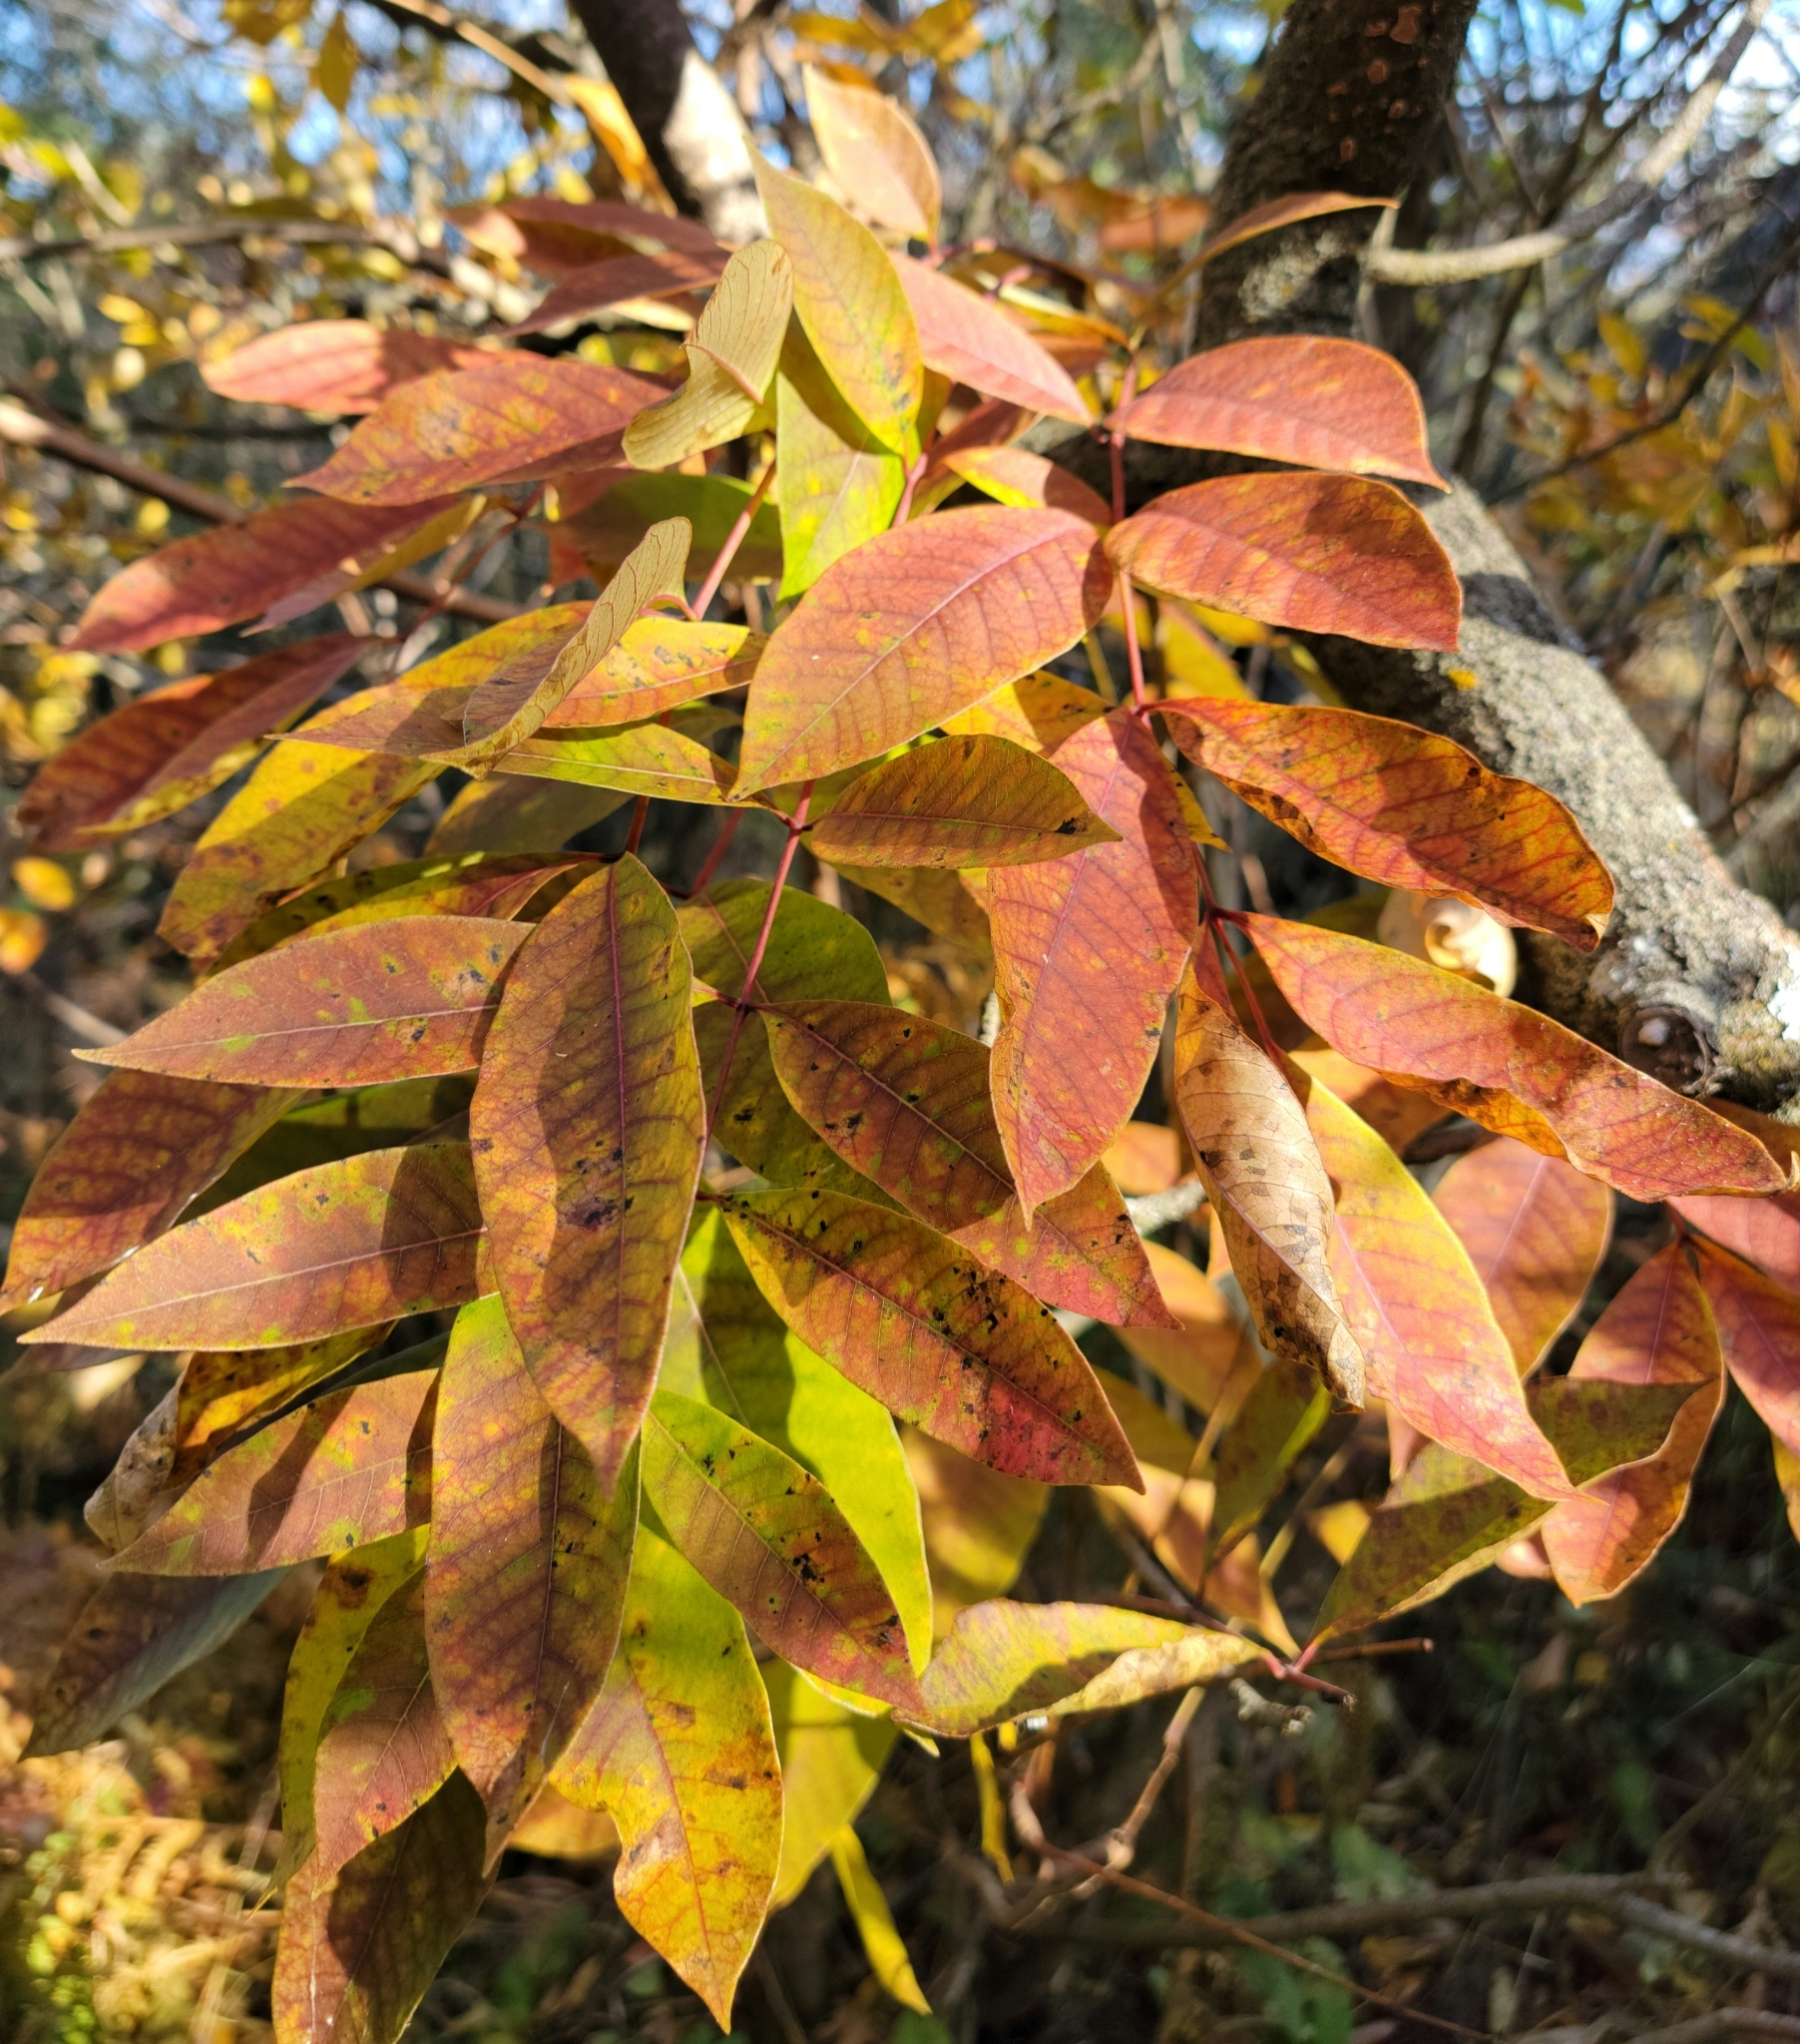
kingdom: Plantae
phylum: Tracheophyta
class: Magnoliopsida
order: Sapindales
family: Anacardiaceae
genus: Toxicodendron
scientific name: Toxicodendron vernix
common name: Poison sumac
